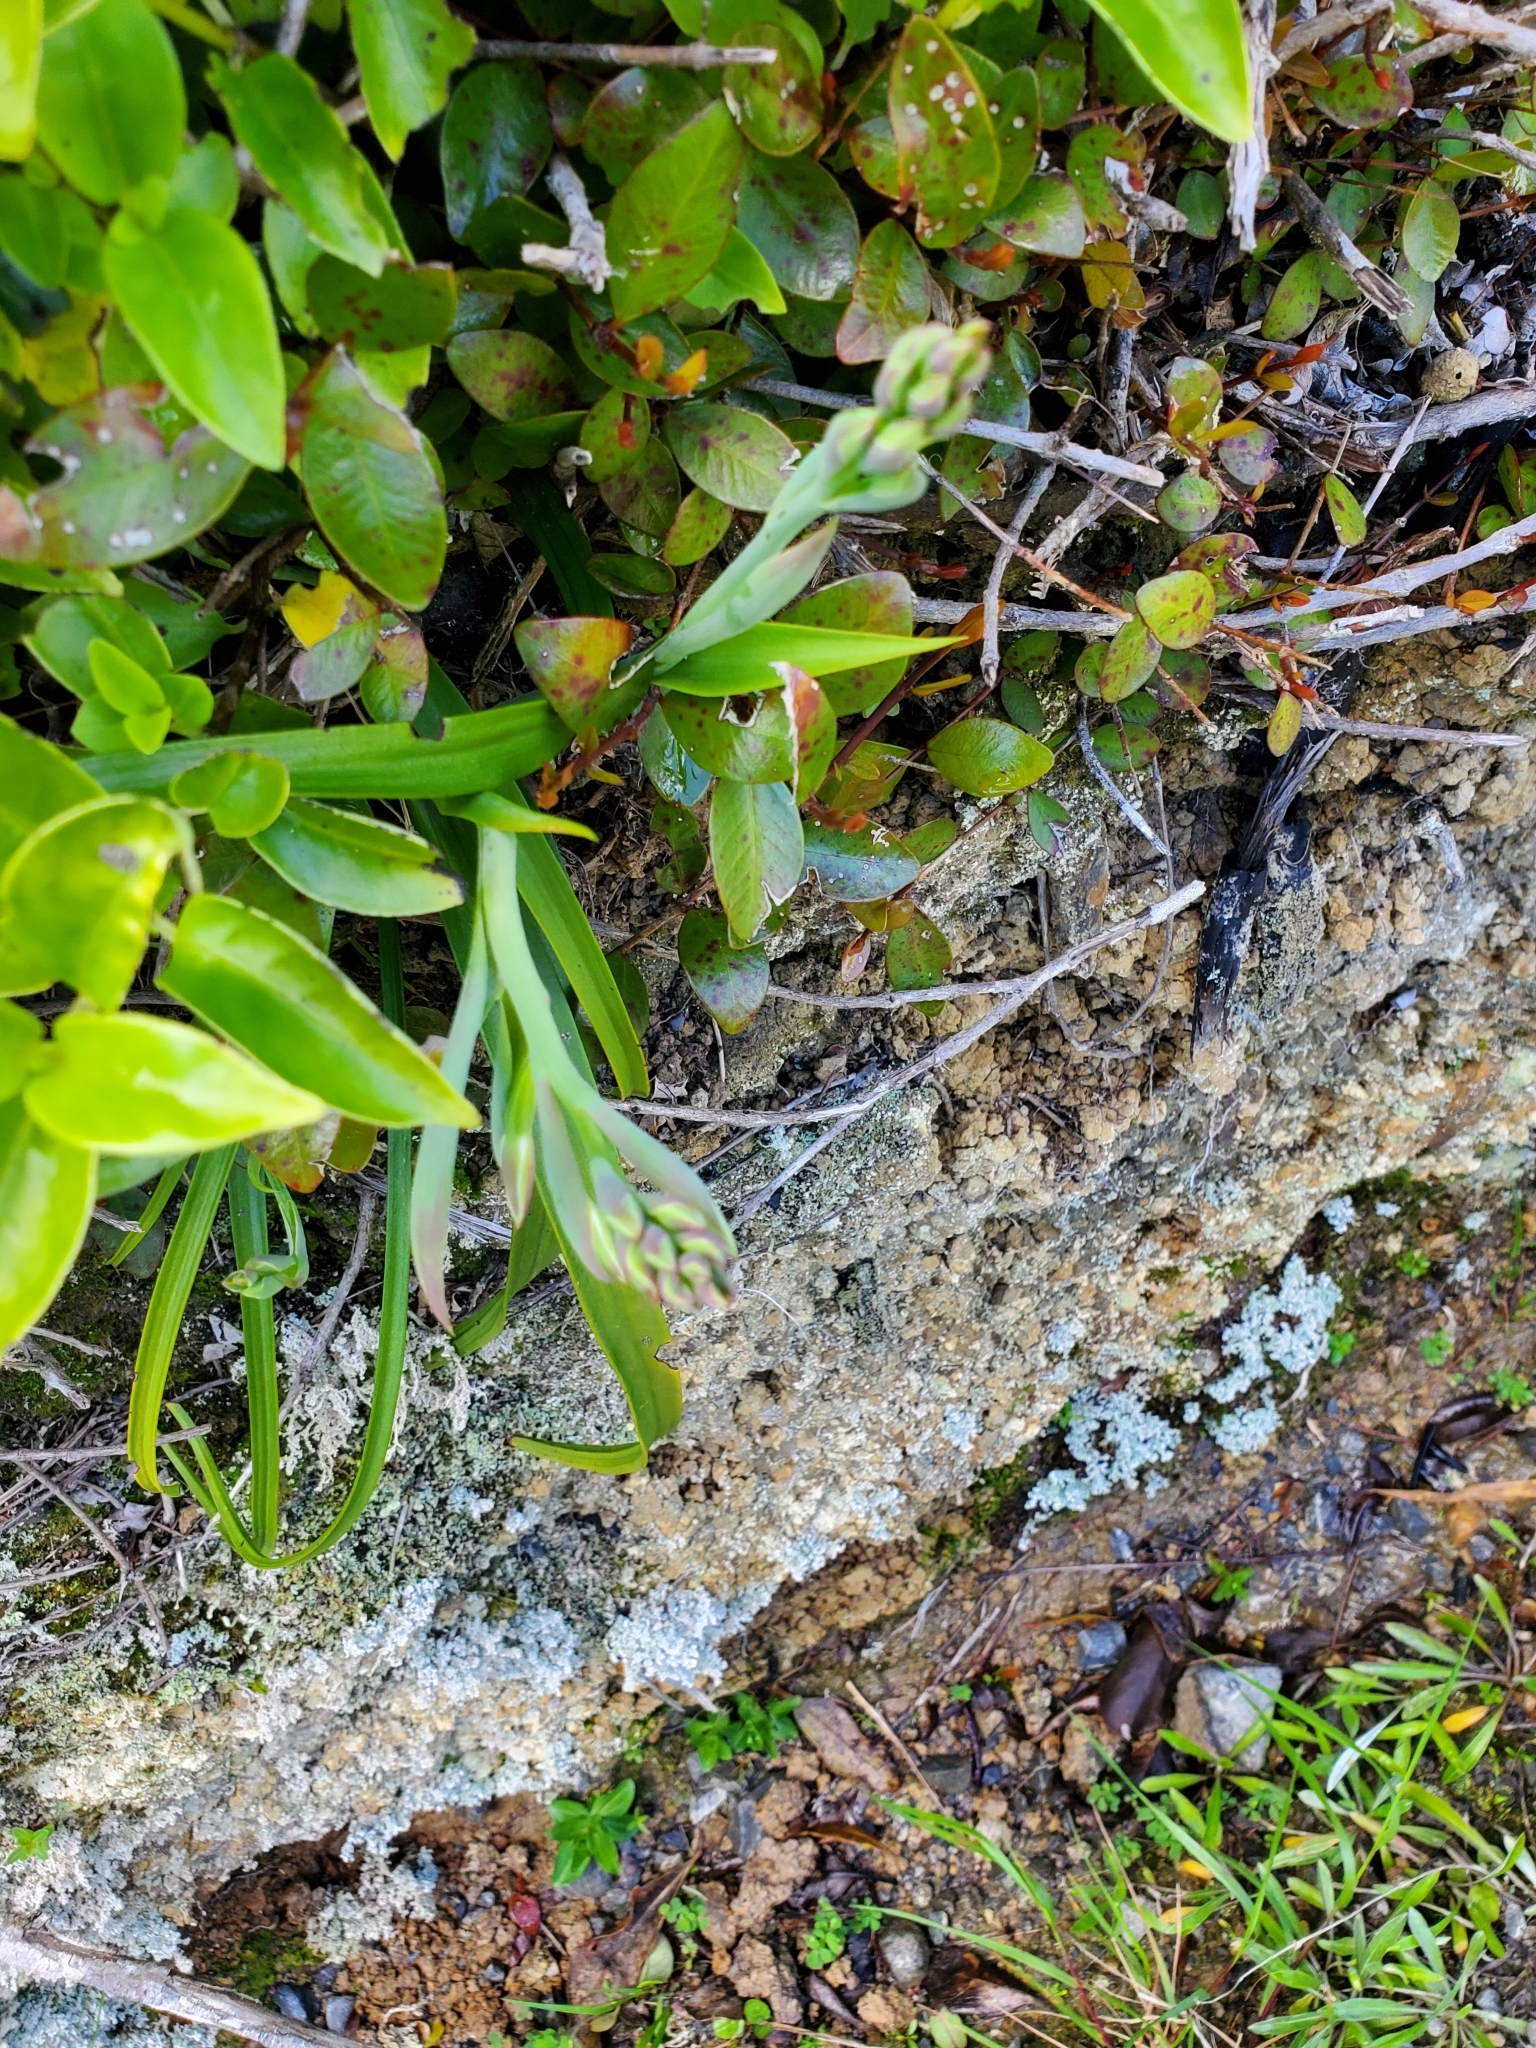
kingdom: Plantae
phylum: Tracheophyta
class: Liliopsida
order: Asparagales
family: Orchidaceae
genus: Thelymitra
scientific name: Thelymitra longifolia
